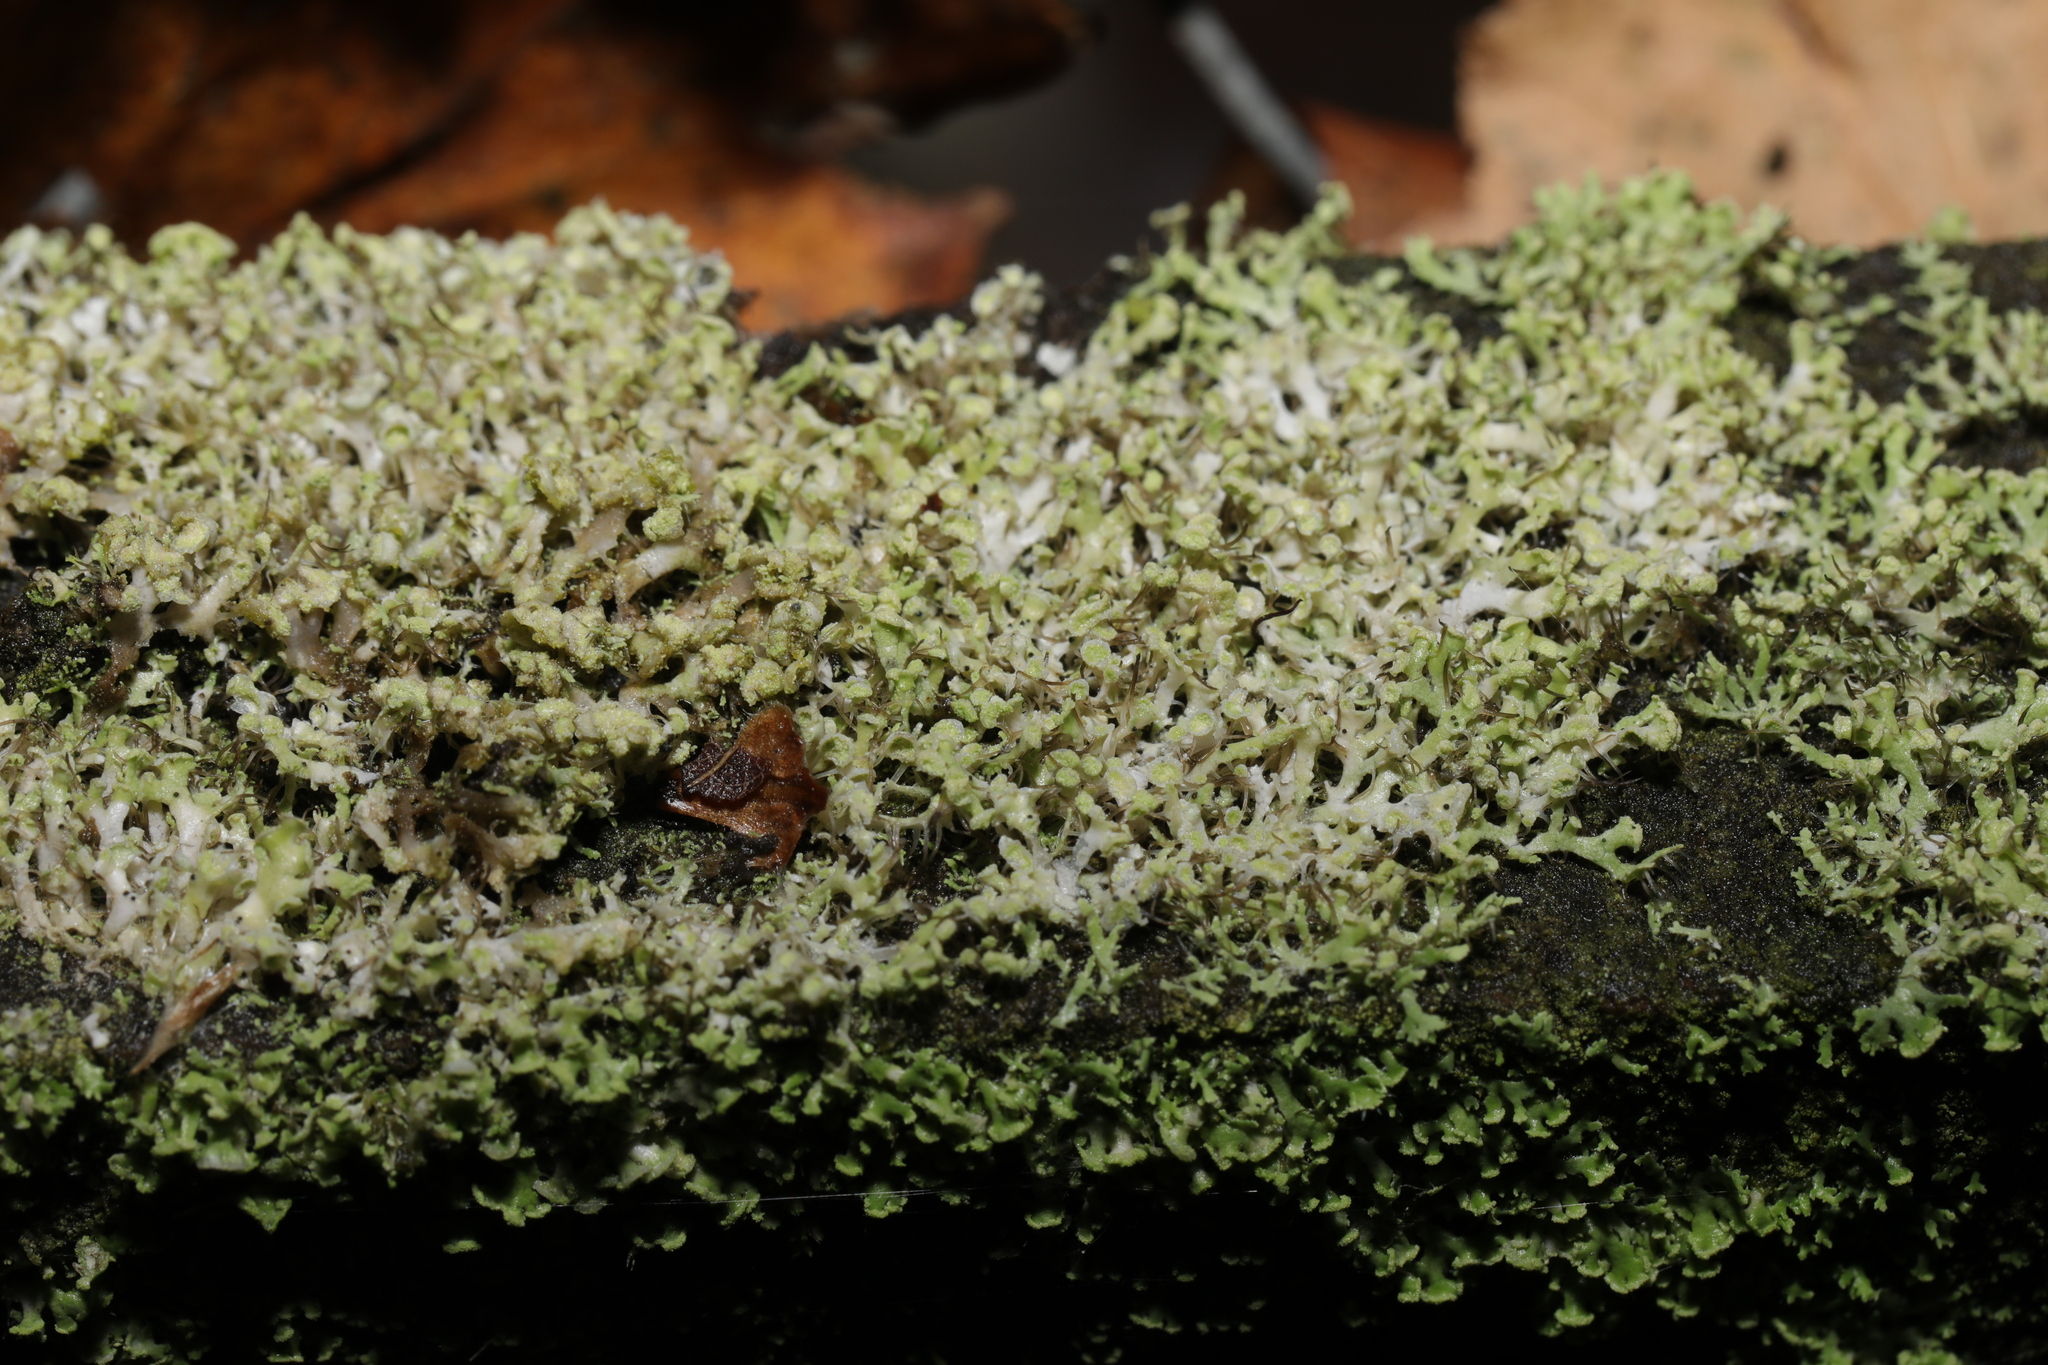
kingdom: Fungi
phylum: Ascomycota
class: Lecanoromycetes
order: Caliciales
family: Physciaceae
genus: Physcia
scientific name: Physcia tenella
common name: Fringed rosette lichen
